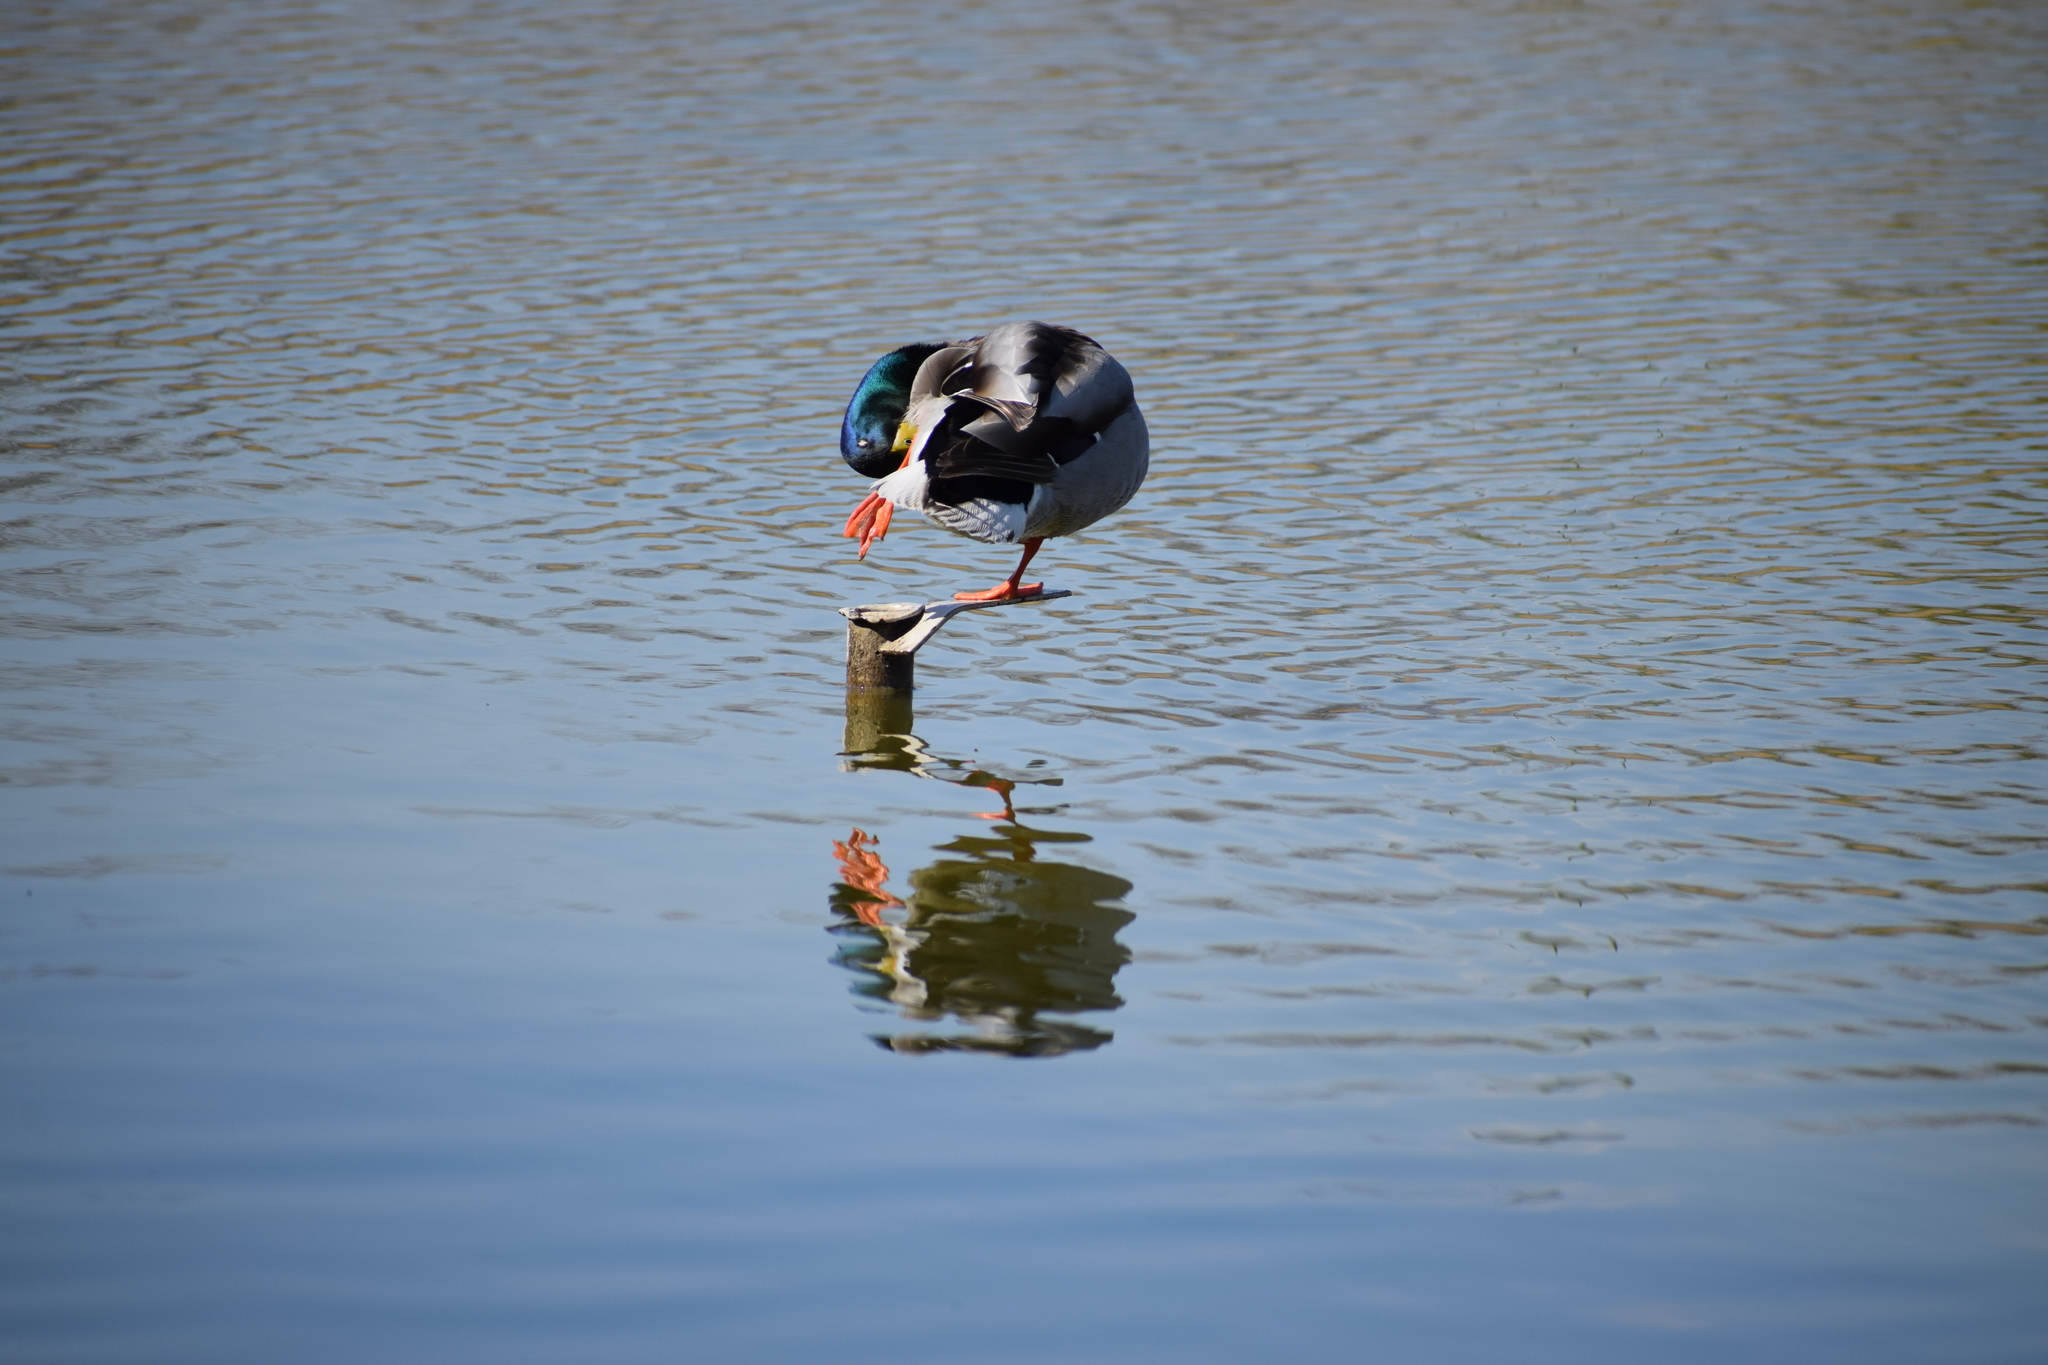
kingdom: Animalia
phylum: Chordata
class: Aves
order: Anseriformes
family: Anatidae
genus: Anas
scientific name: Anas platyrhynchos
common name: Mallard
